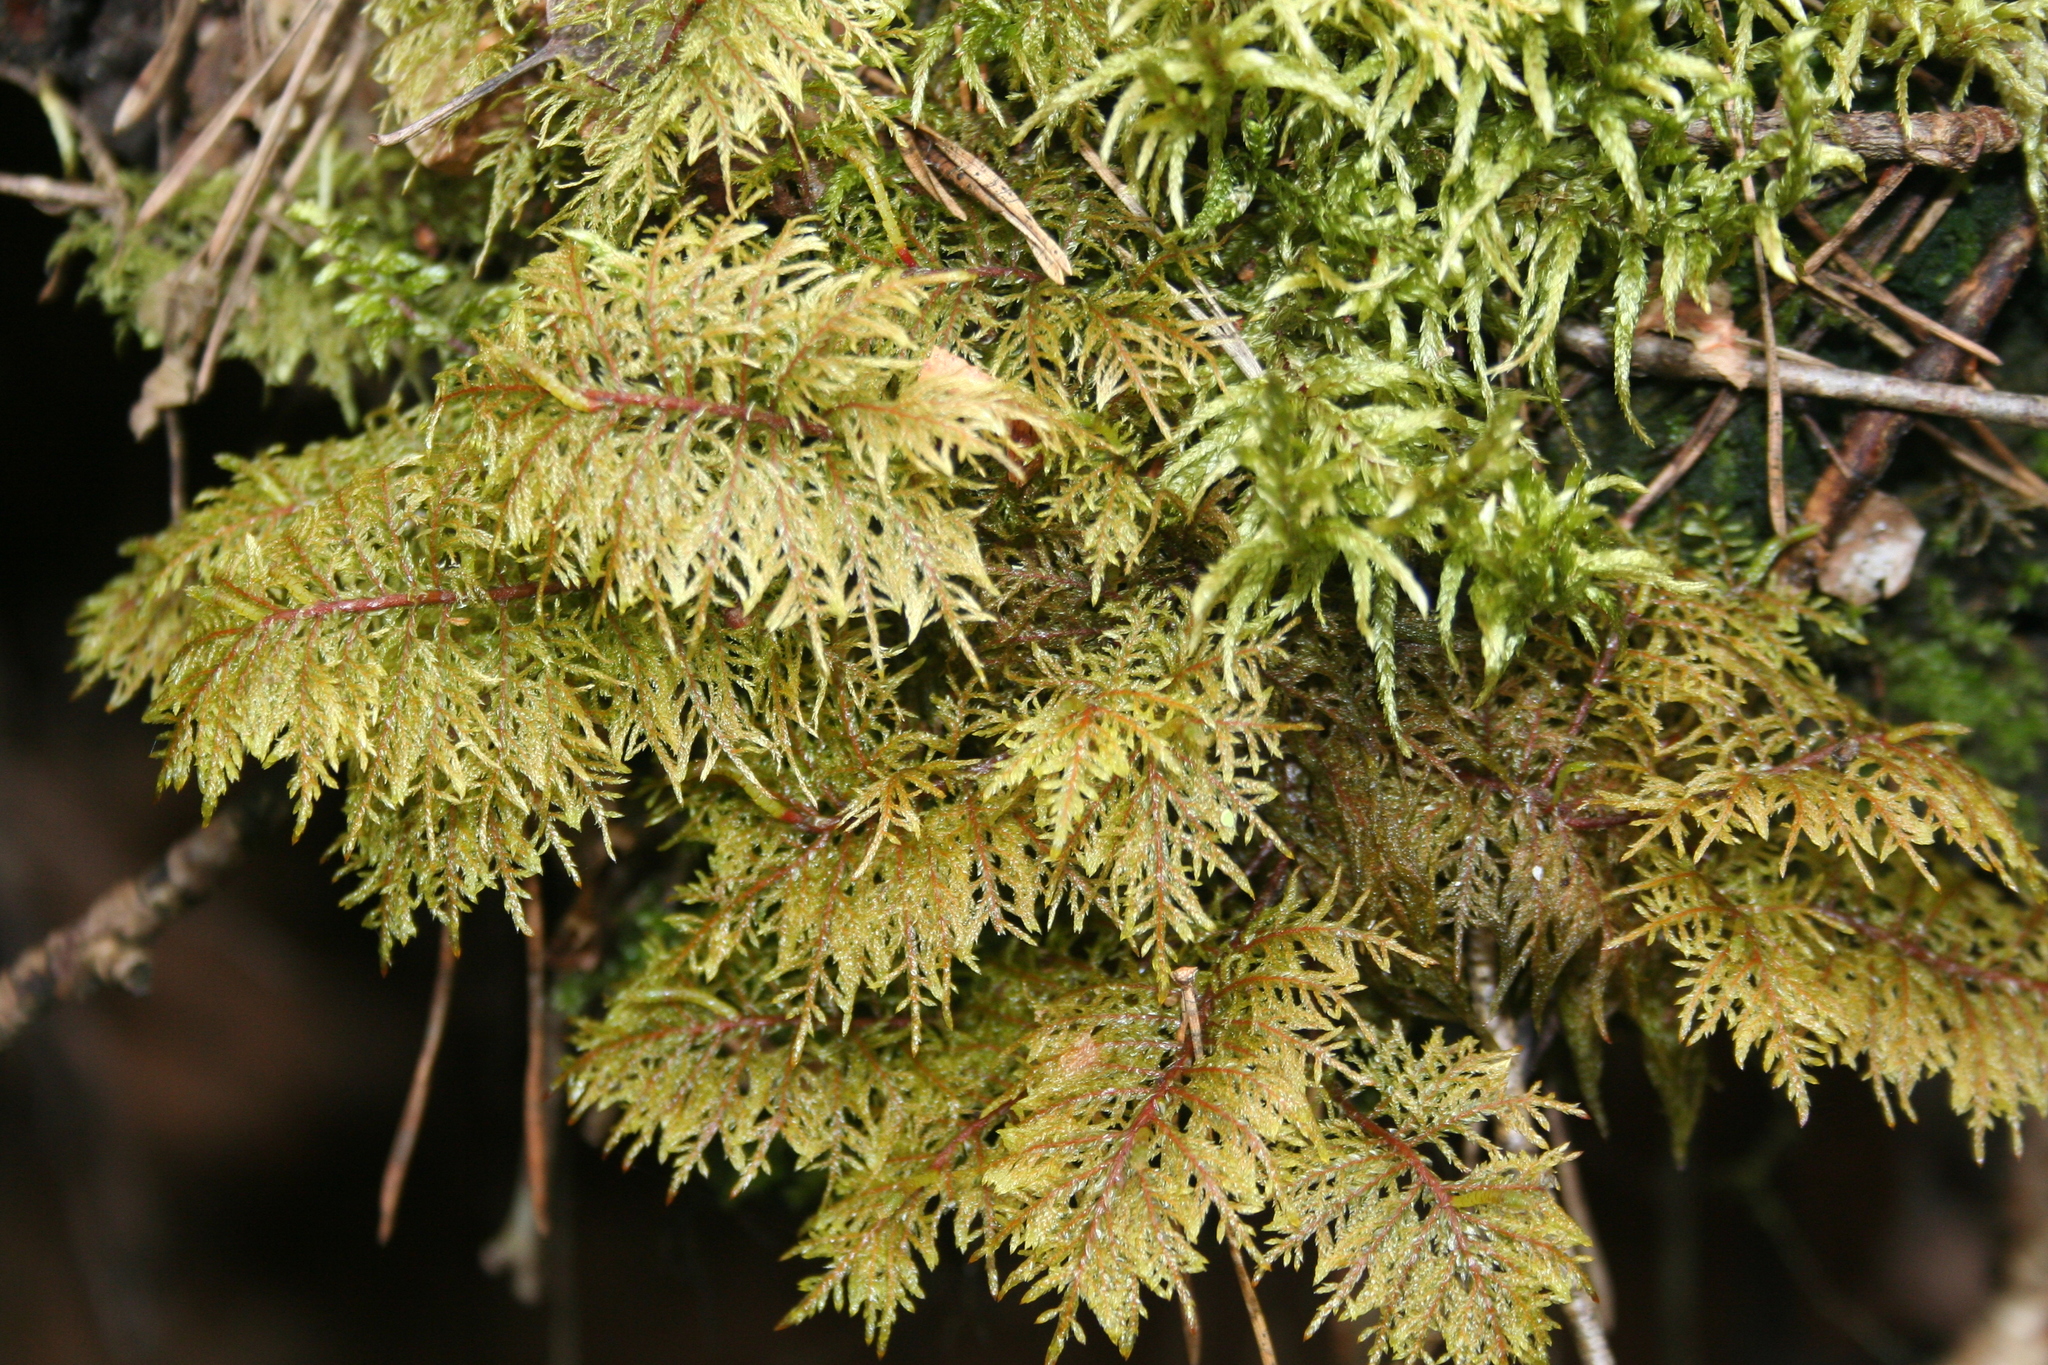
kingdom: Plantae
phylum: Bryophyta
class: Bryopsida
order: Hypnales
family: Hylocomiaceae
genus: Hylocomium
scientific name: Hylocomium splendens
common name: Stairstep moss
